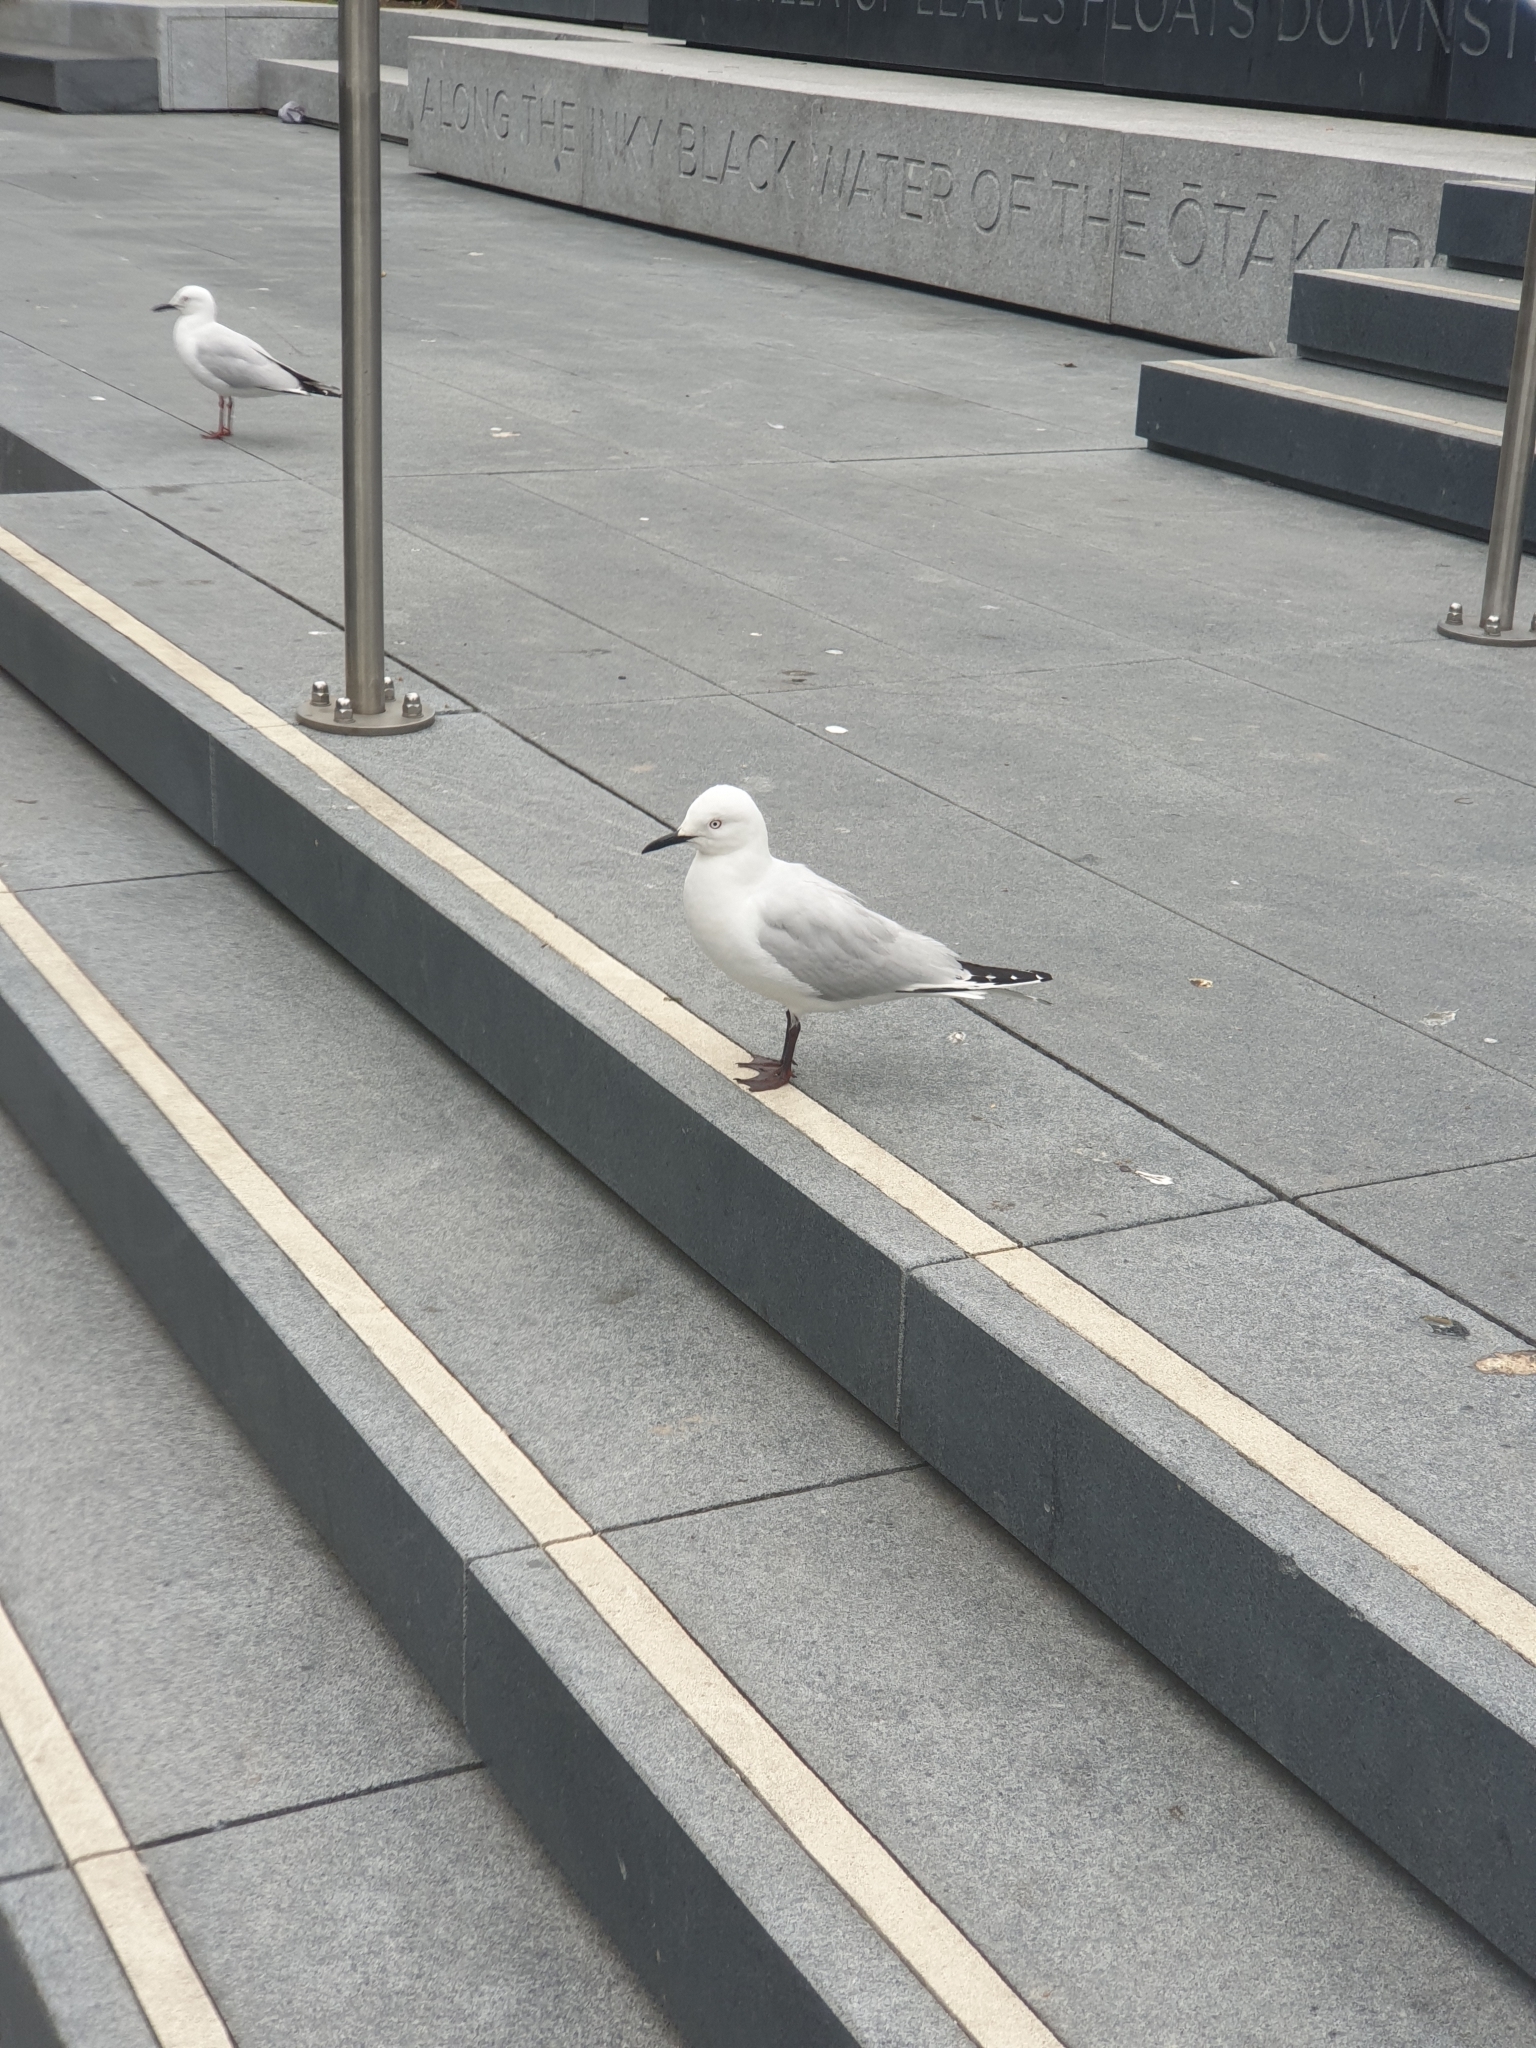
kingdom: Animalia
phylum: Chordata
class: Aves
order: Charadriiformes
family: Laridae
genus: Chroicocephalus
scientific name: Chroicocephalus bulleri
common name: Black-billed gull
